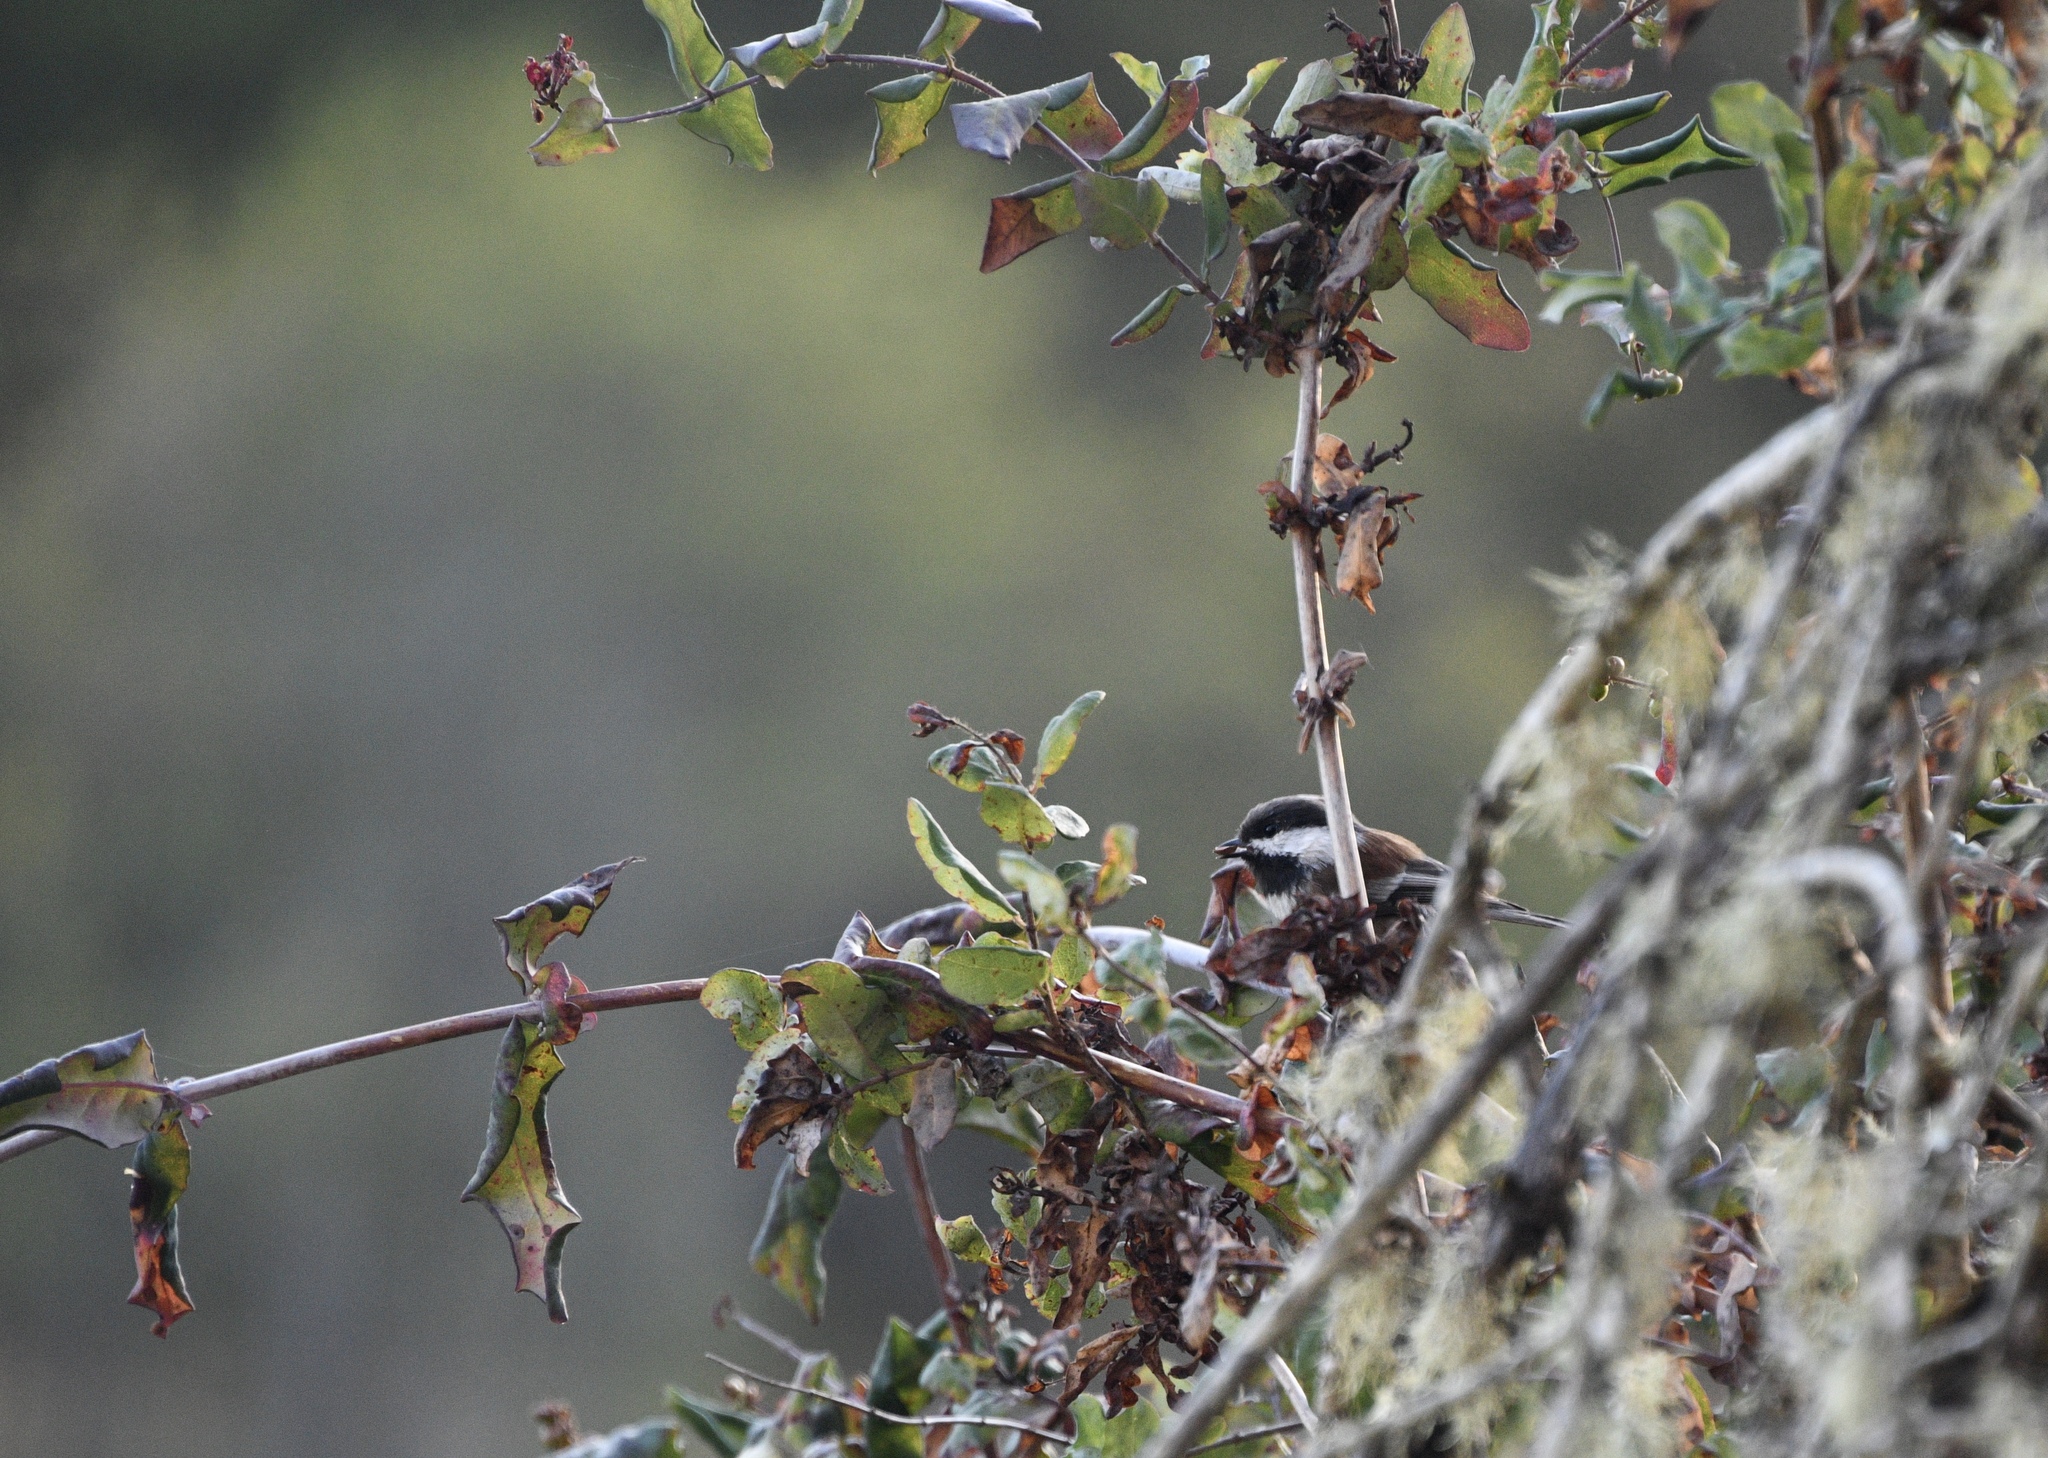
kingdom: Animalia
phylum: Chordata
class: Aves
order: Passeriformes
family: Paridae
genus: Poecile
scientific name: Poecile rufescens
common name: Chestnut-backed chickadee
